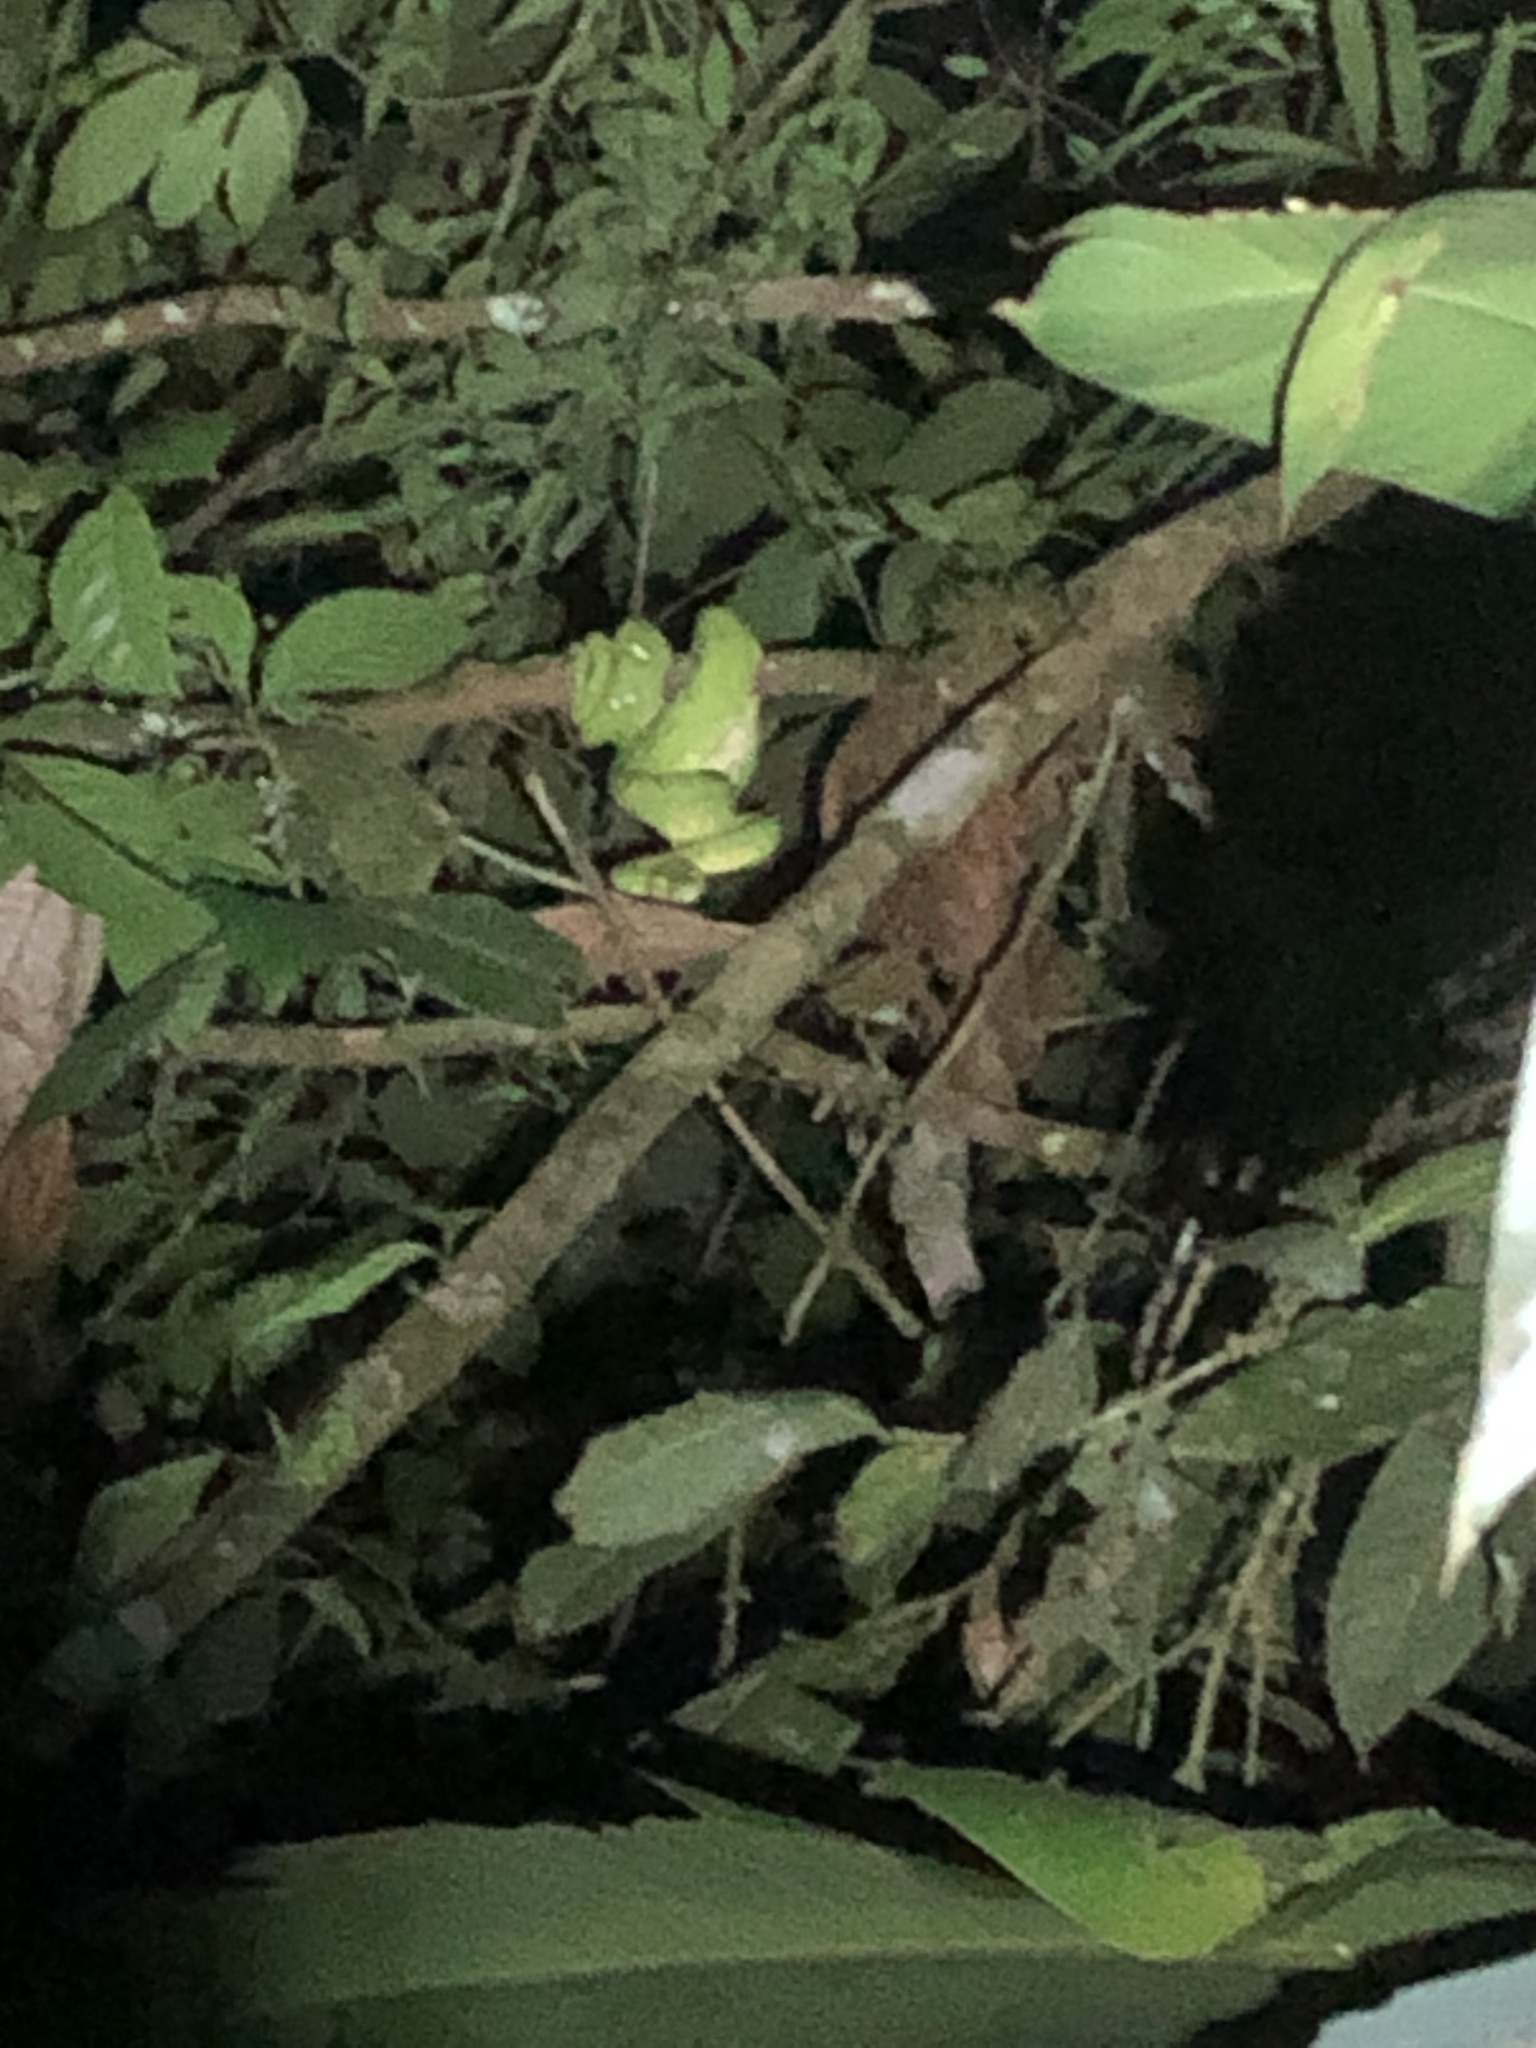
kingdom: Animalia
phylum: Chordata
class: Squamata
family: Boidae
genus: Corallus
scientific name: Corallus batesii
